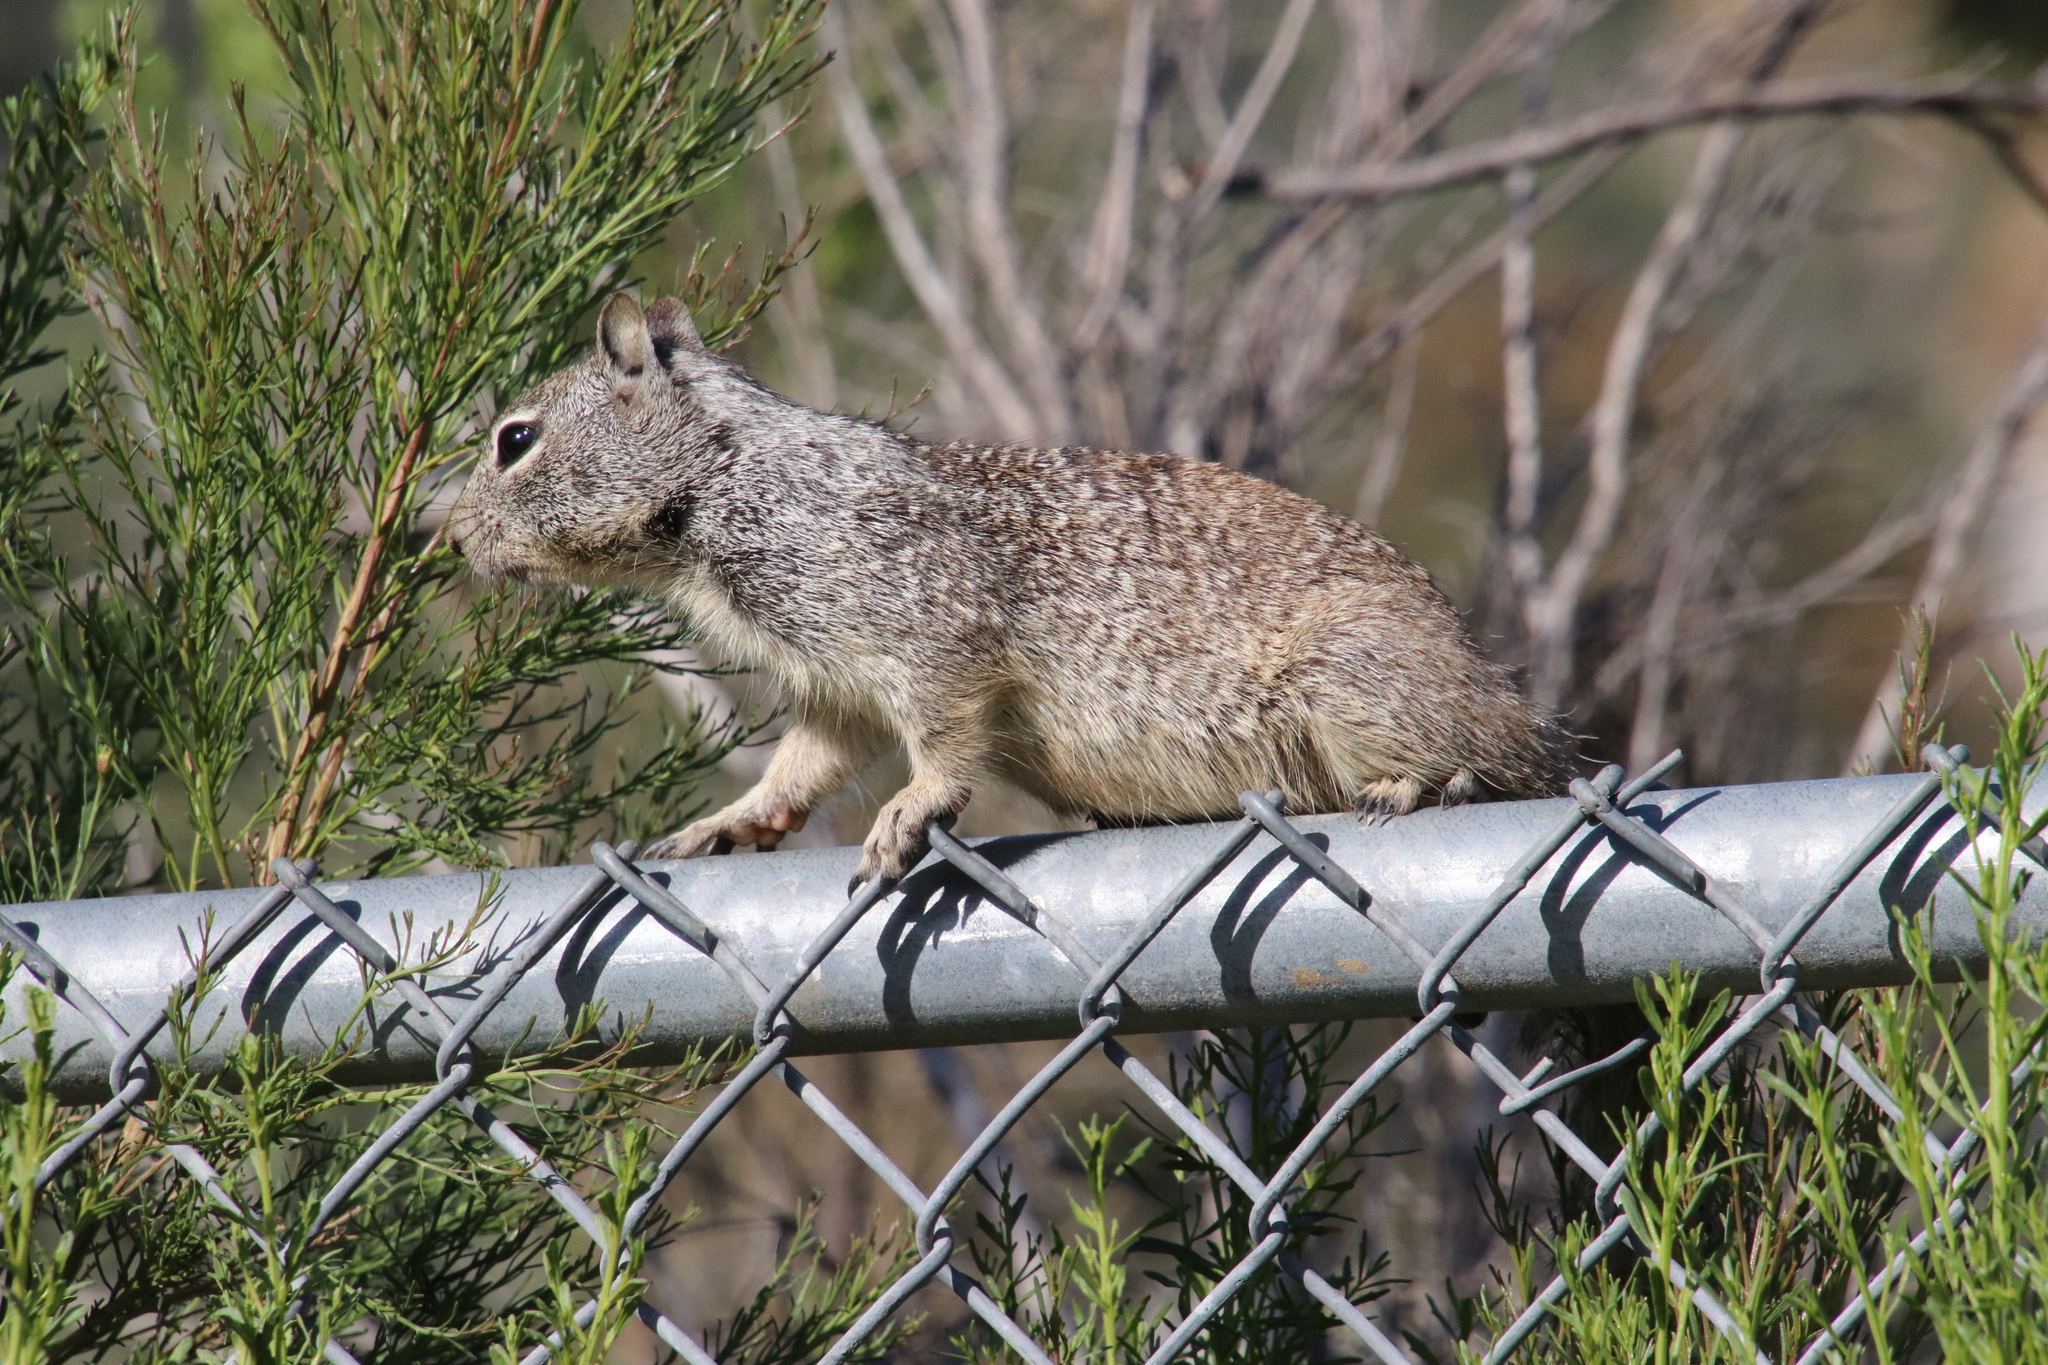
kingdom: Animalia
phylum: Chordata
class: Mammalia
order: Rodentia
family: Sciuridae
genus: Otospermophilus
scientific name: Otospermophilus beecheyi
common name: California ground squirrel
